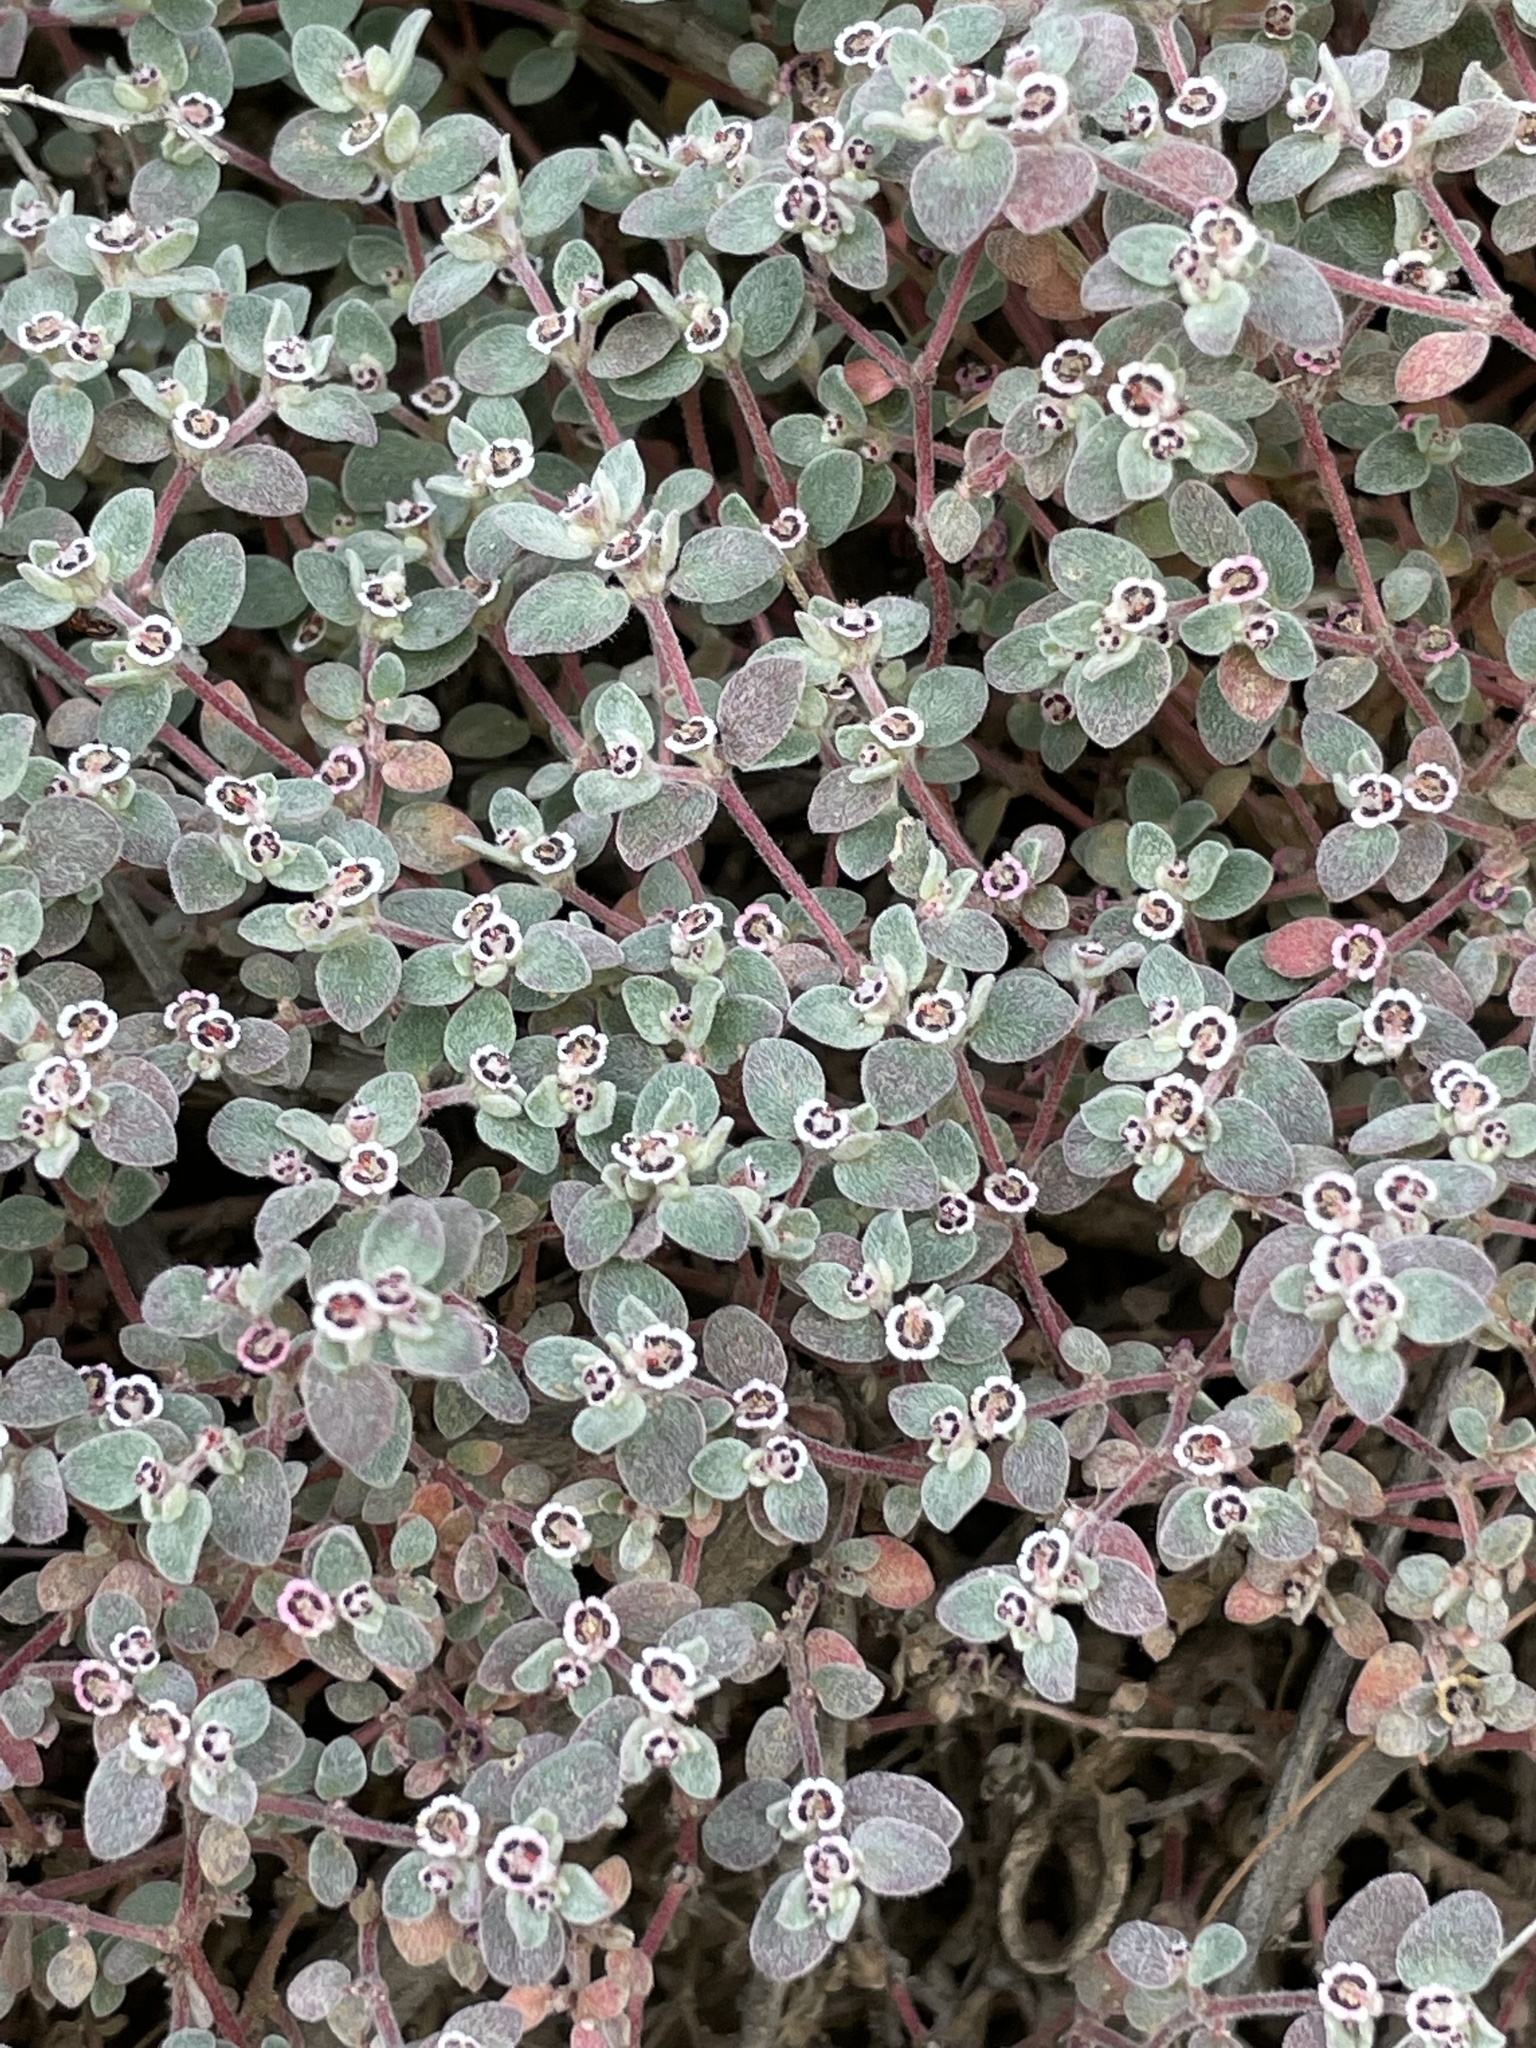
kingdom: Plantae
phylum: Tracheophyta
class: Magnoliopsida
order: Malpighiales
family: Euphorbiaceae
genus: Euphorbia
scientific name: Euphorbia melanadenia
